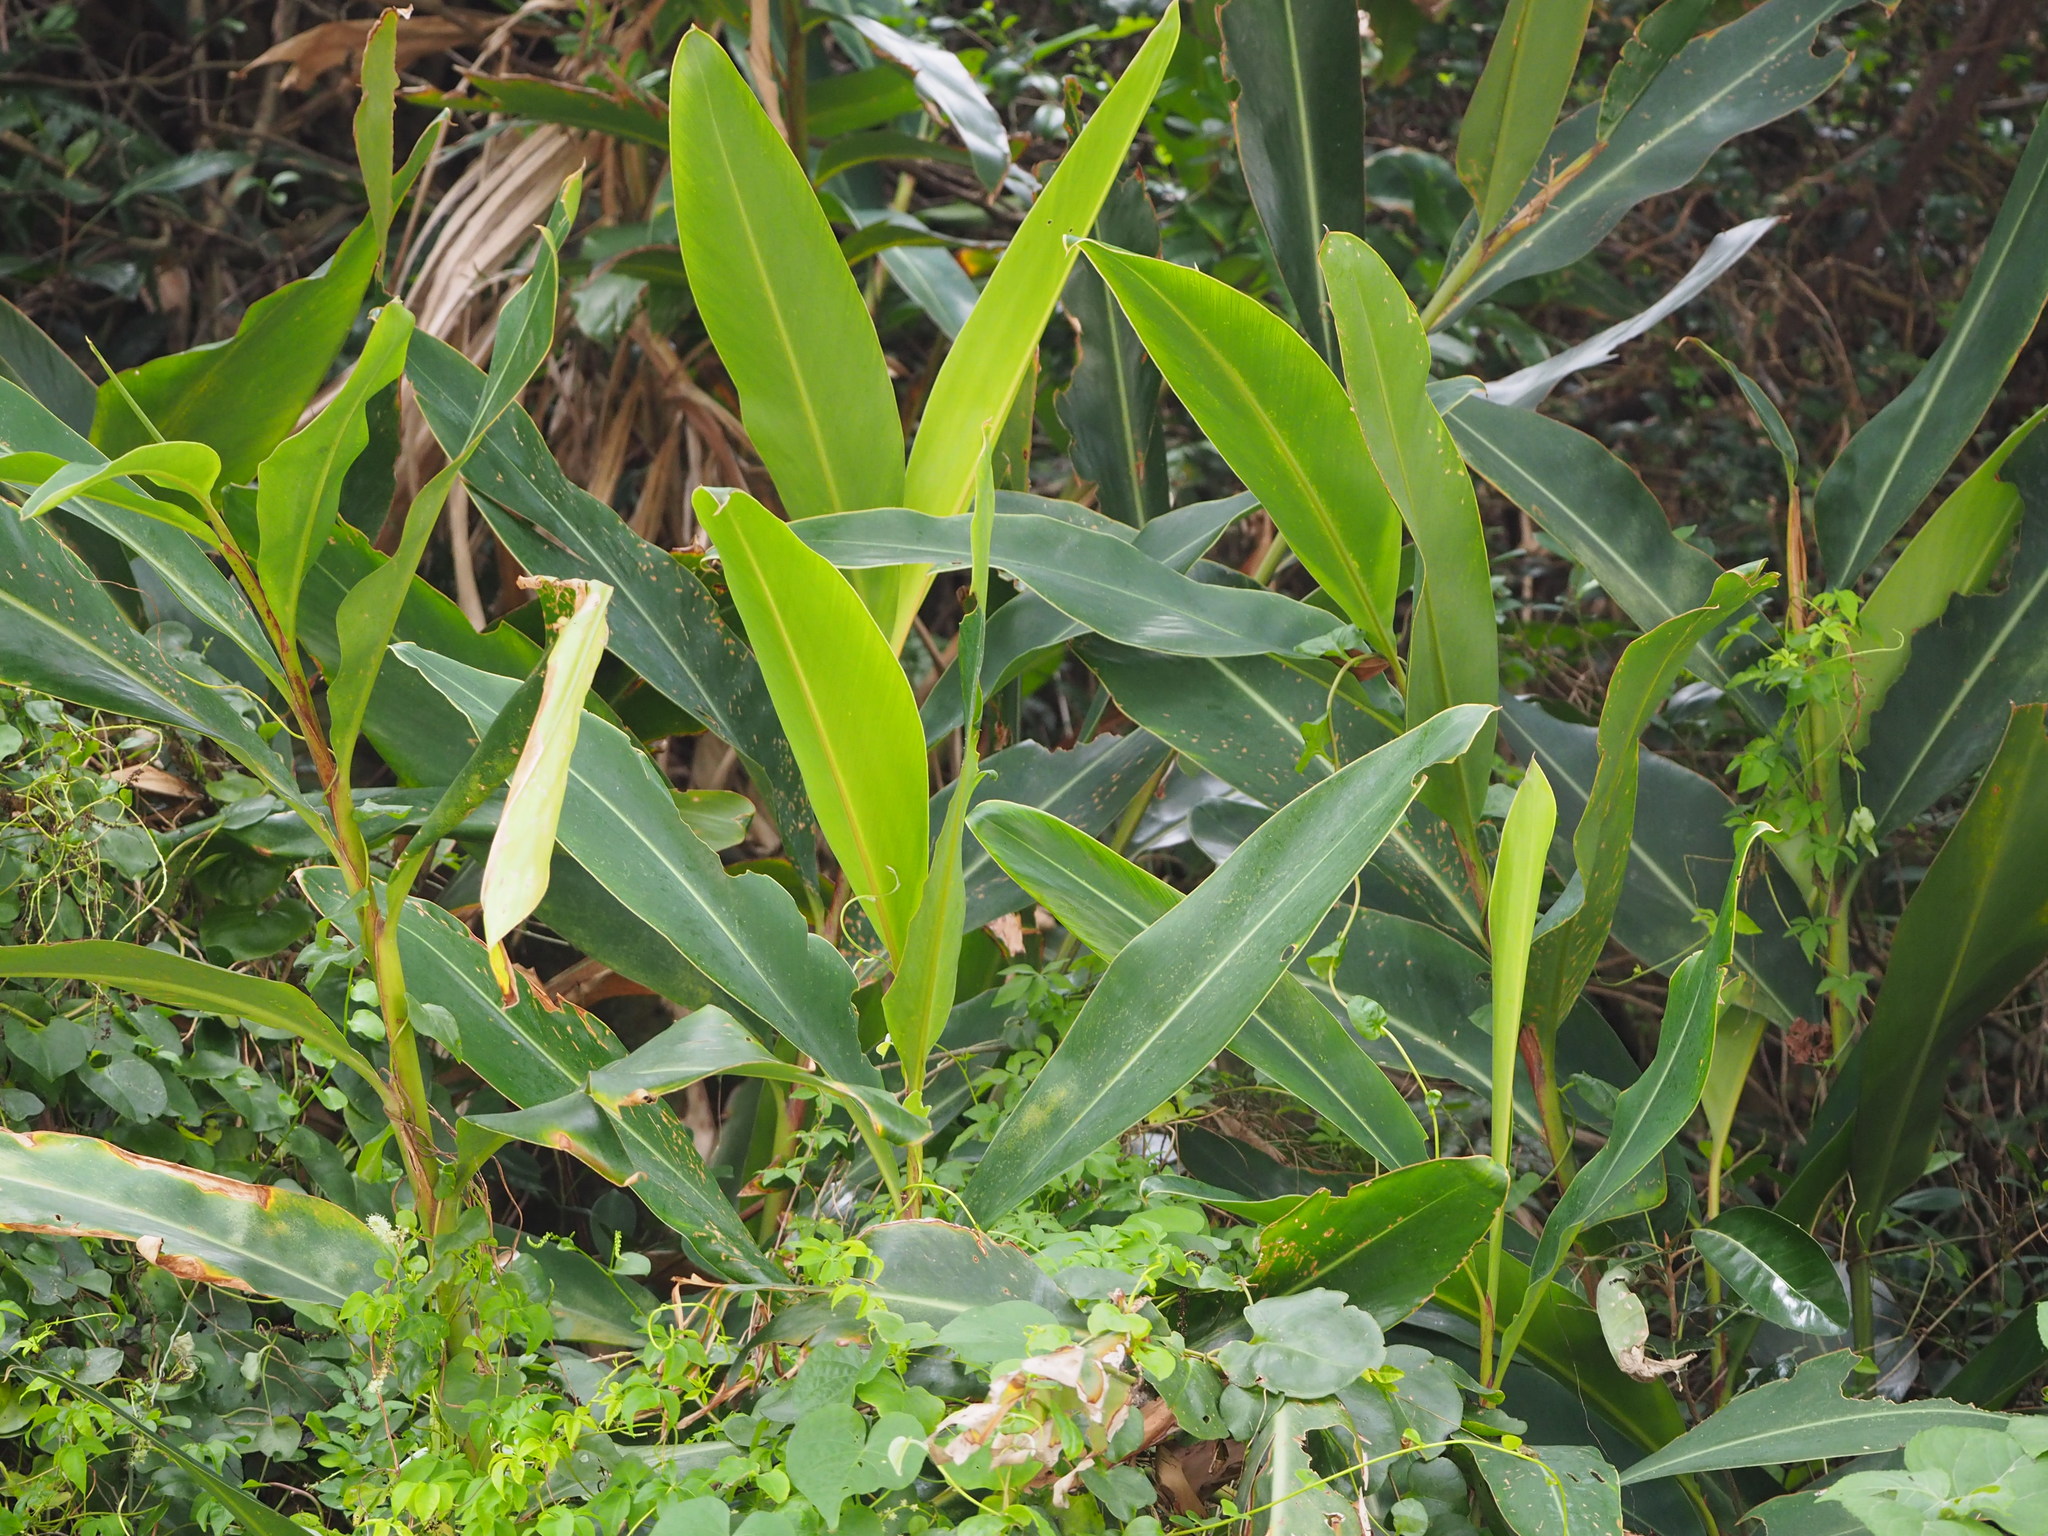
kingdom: Plantae
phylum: Tracheophyta
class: Liliopsida
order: Zingiberales
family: Zingiberaceae
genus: Alpinia
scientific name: Alpinia zerumbet
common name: Shellplant
